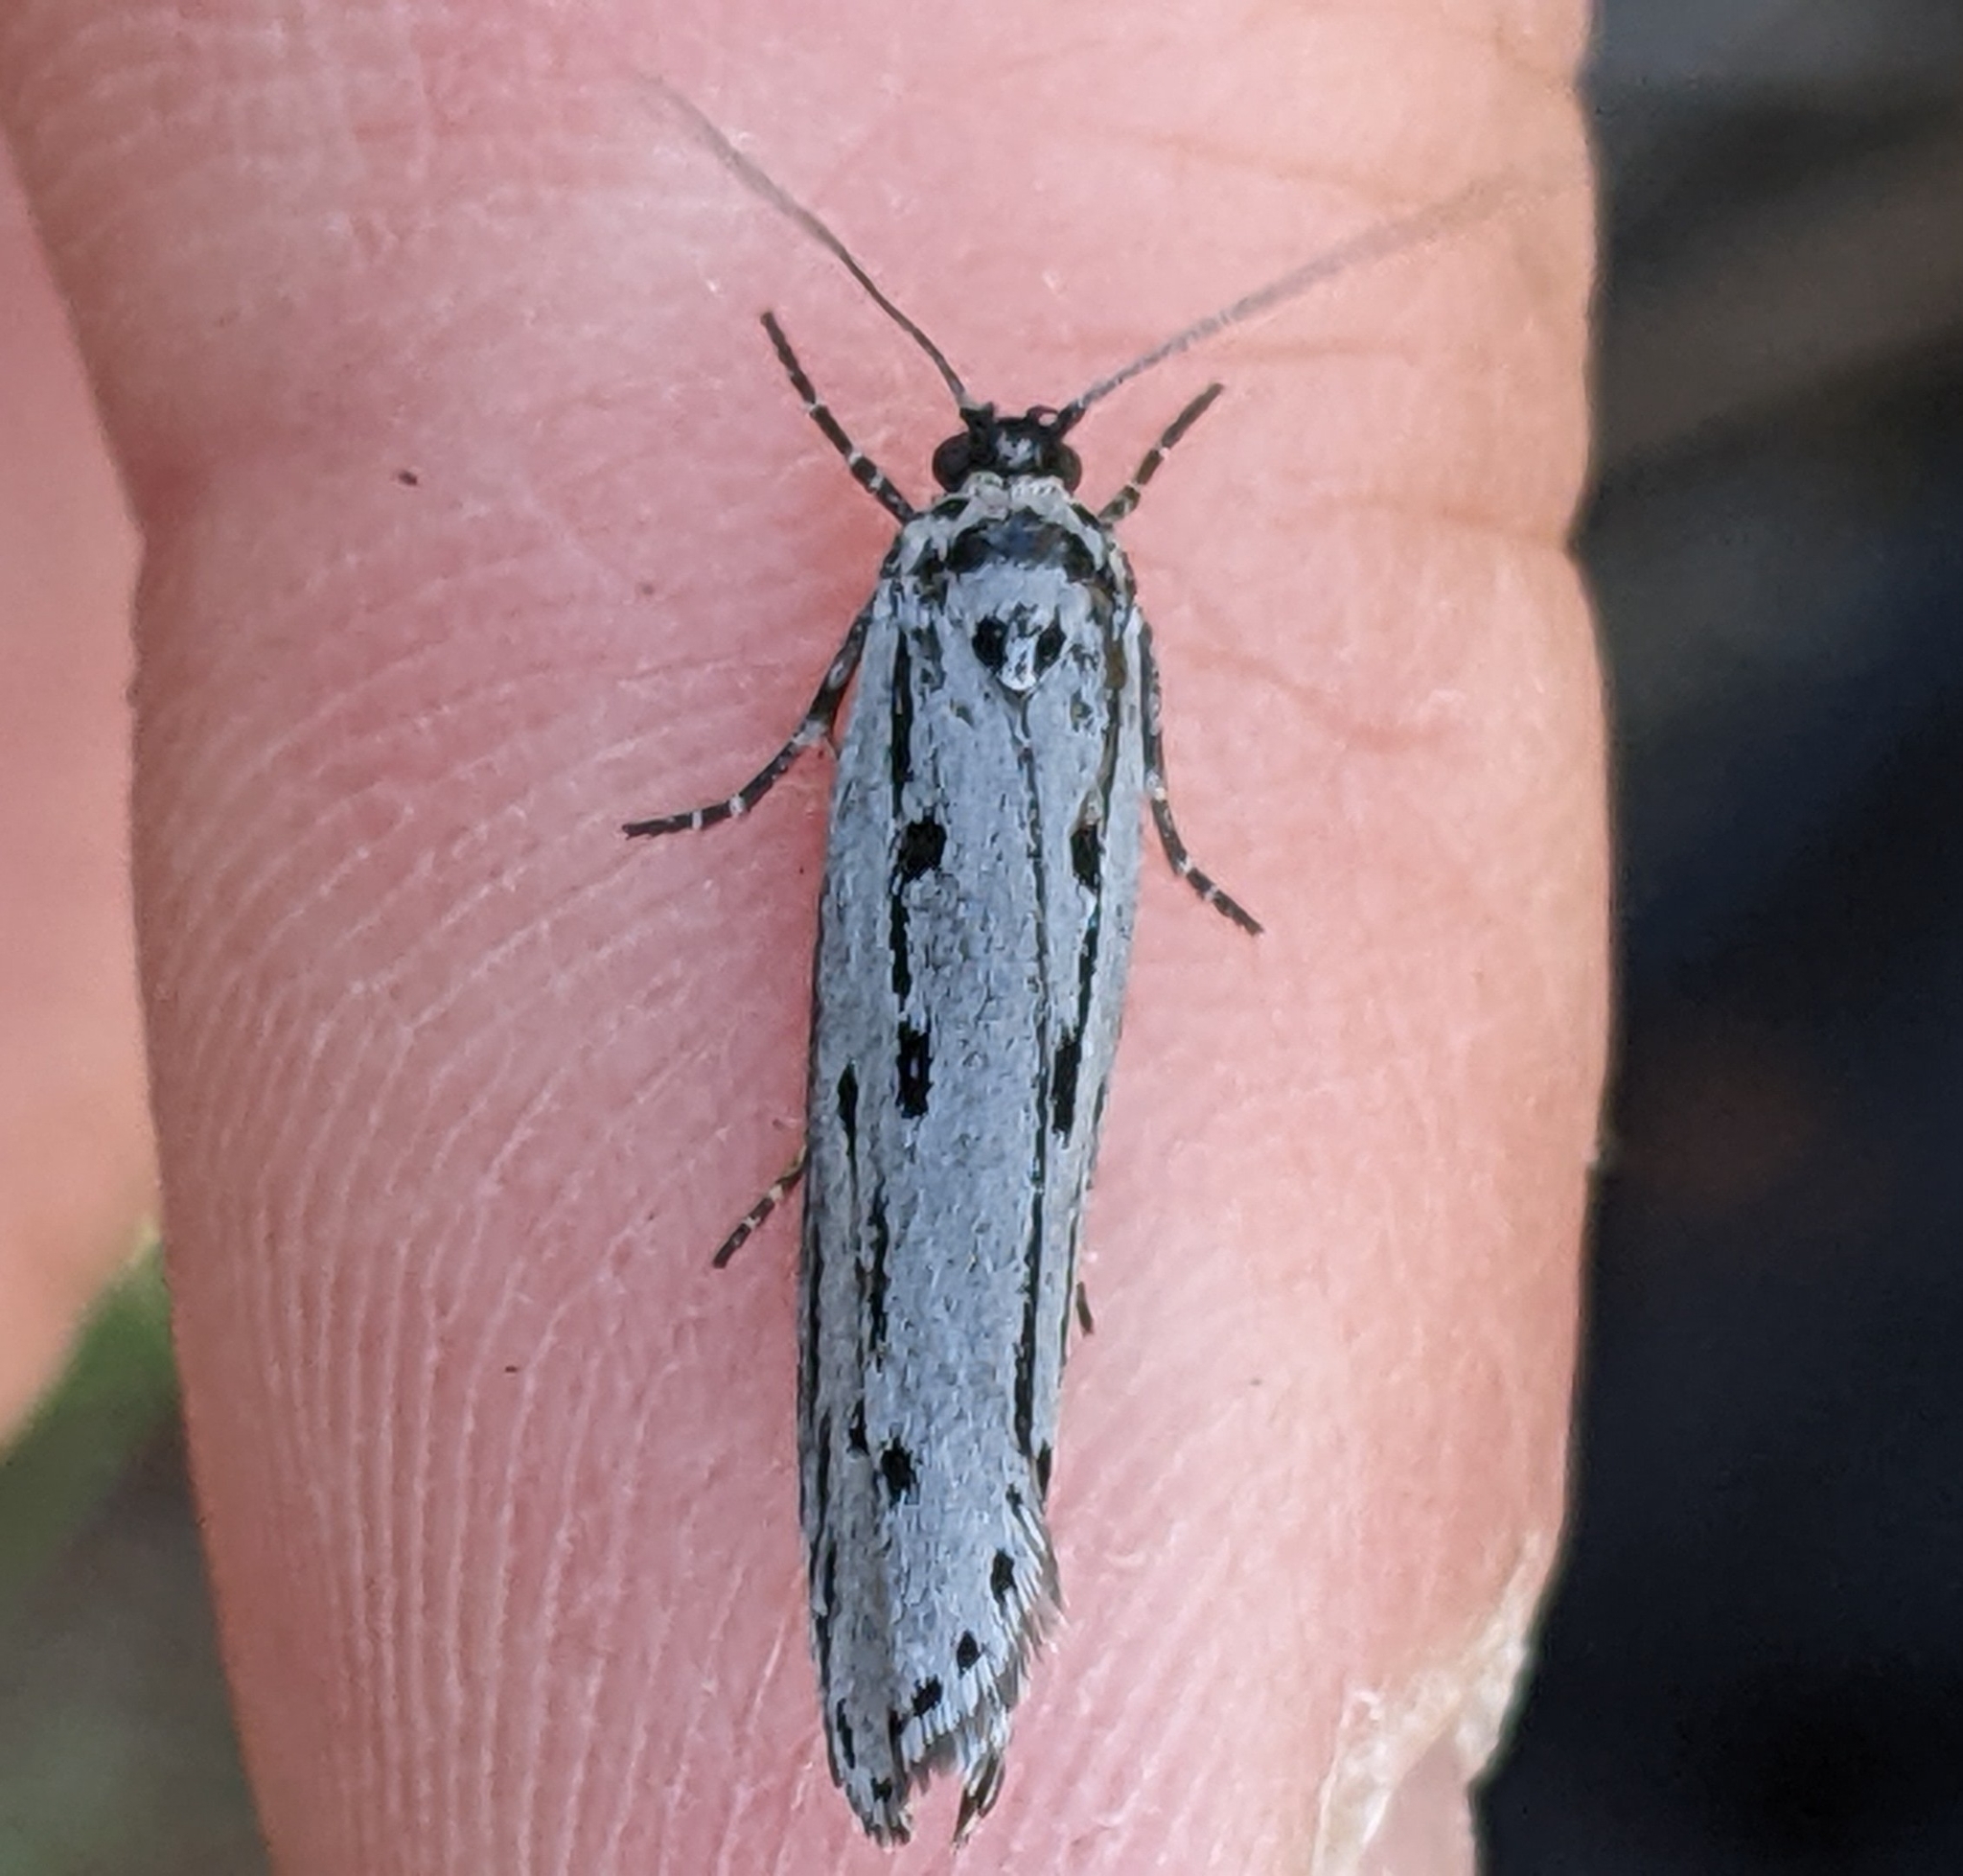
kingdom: Animalia
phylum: Arthropoda
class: Insecta
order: Lepidoptera
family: Ethmiidae
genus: Ethmia
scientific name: Ethmia monticola
